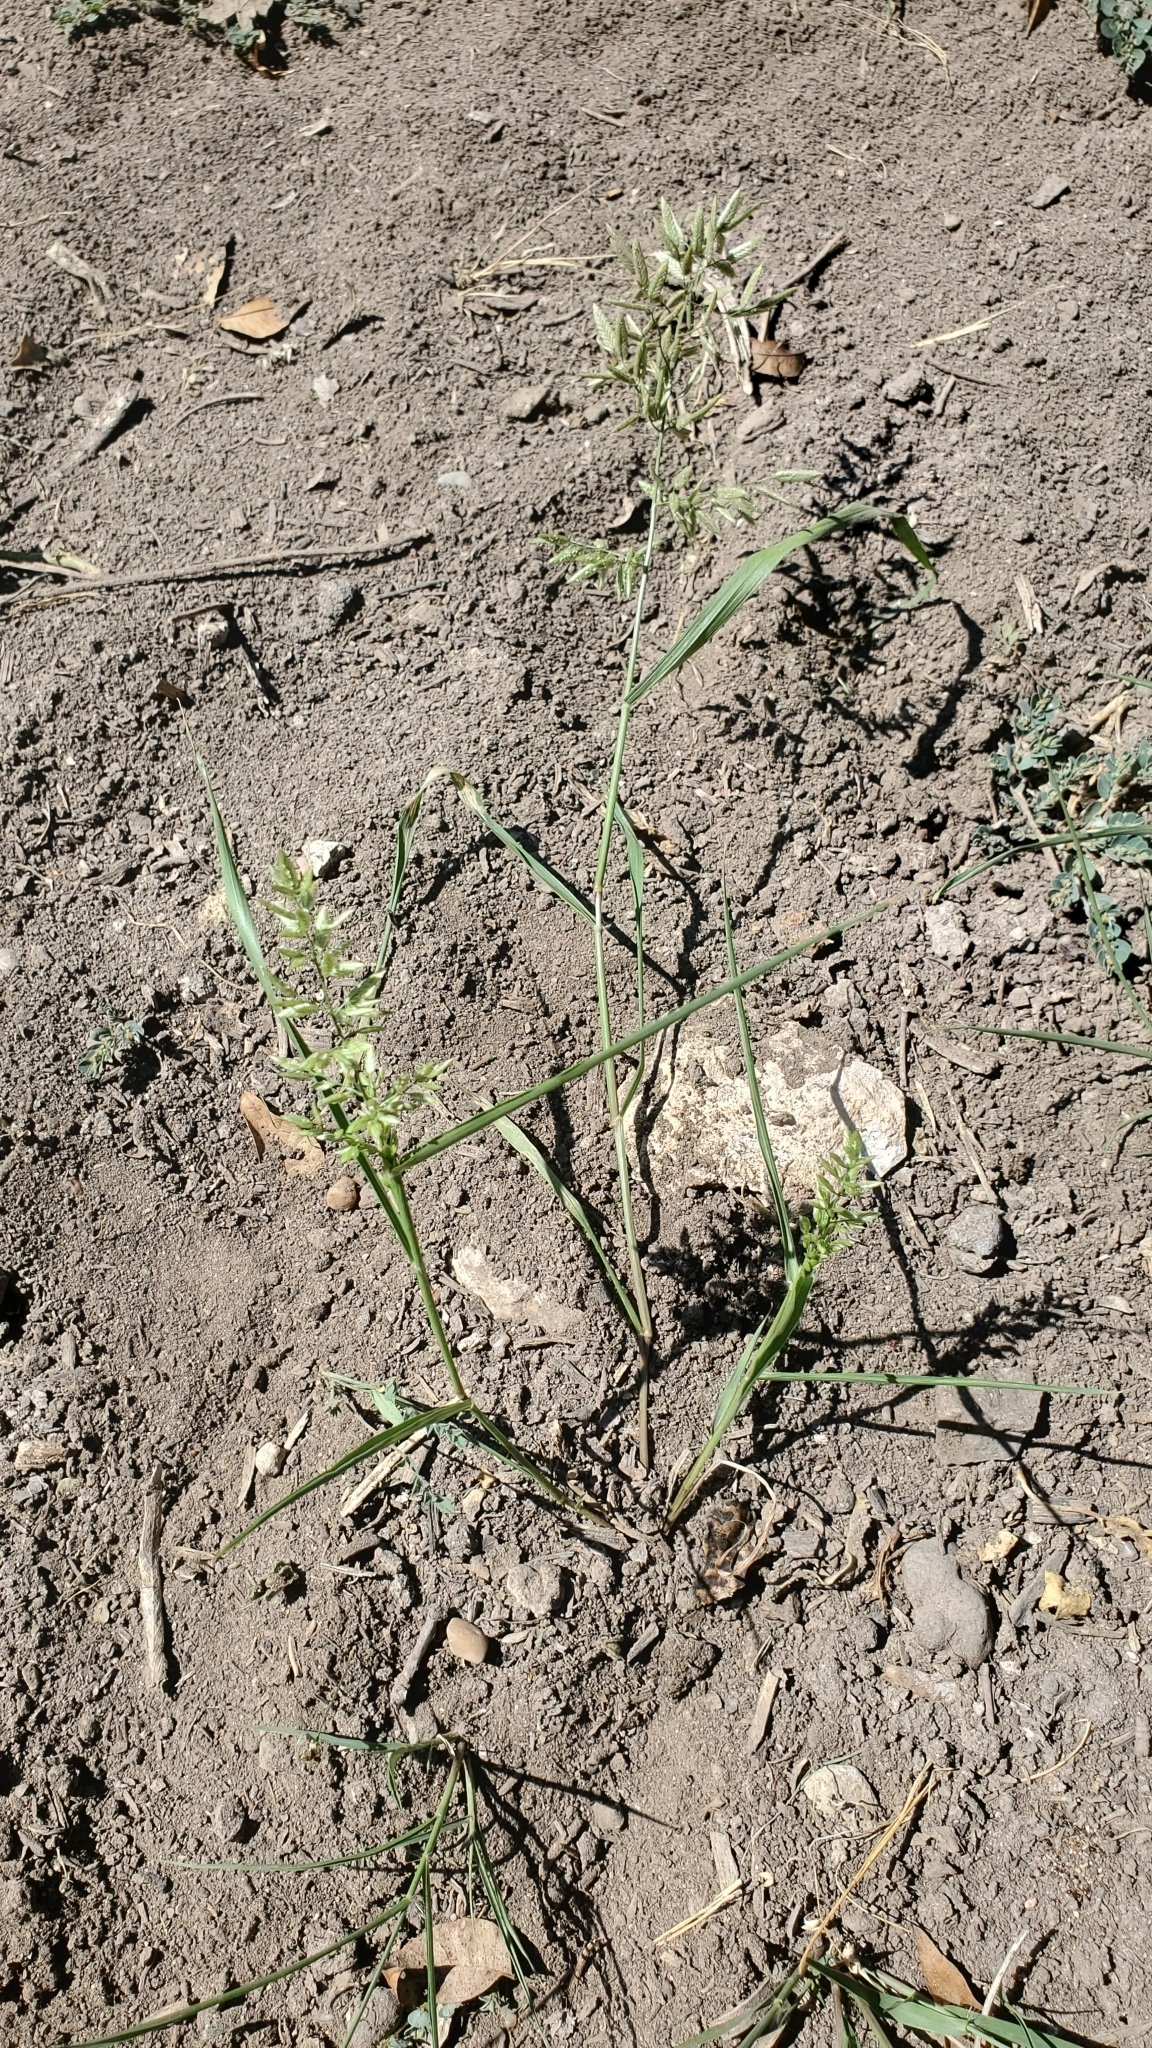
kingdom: Plantae
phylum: Tracheophyta
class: Liliopsida
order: Poales
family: Poaceae
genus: Eragrostis
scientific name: Eragrostis cilianensis
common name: Stinkgrass
